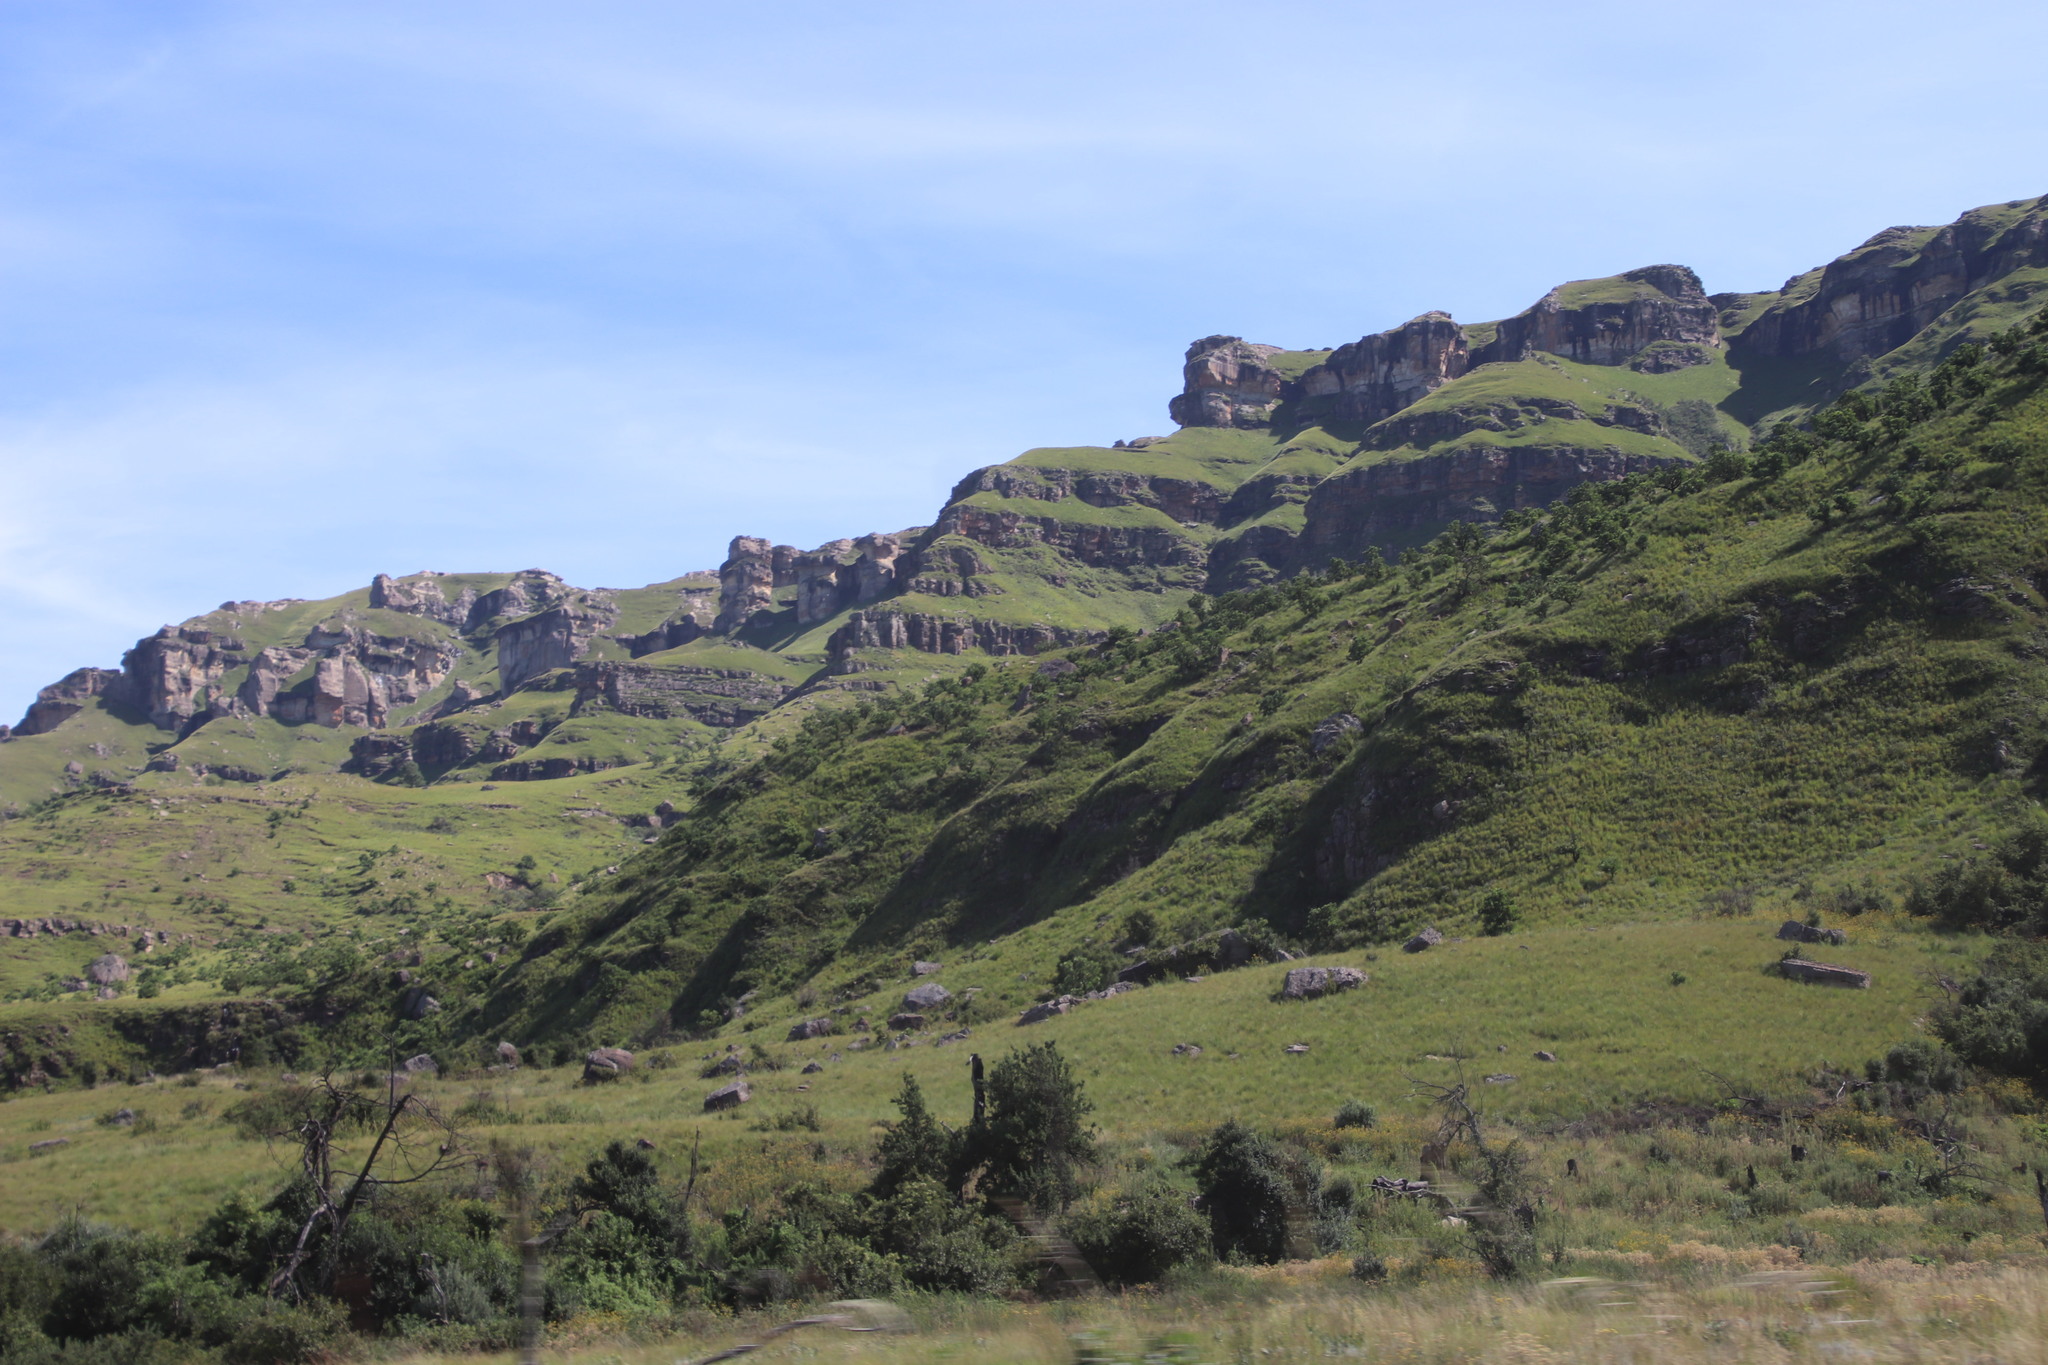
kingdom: Plantae
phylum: Tracheophyta
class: Magnoliopsida
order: Proteales
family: Proteaceae
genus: Protea
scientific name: Protea caffra
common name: Common sugarbush
